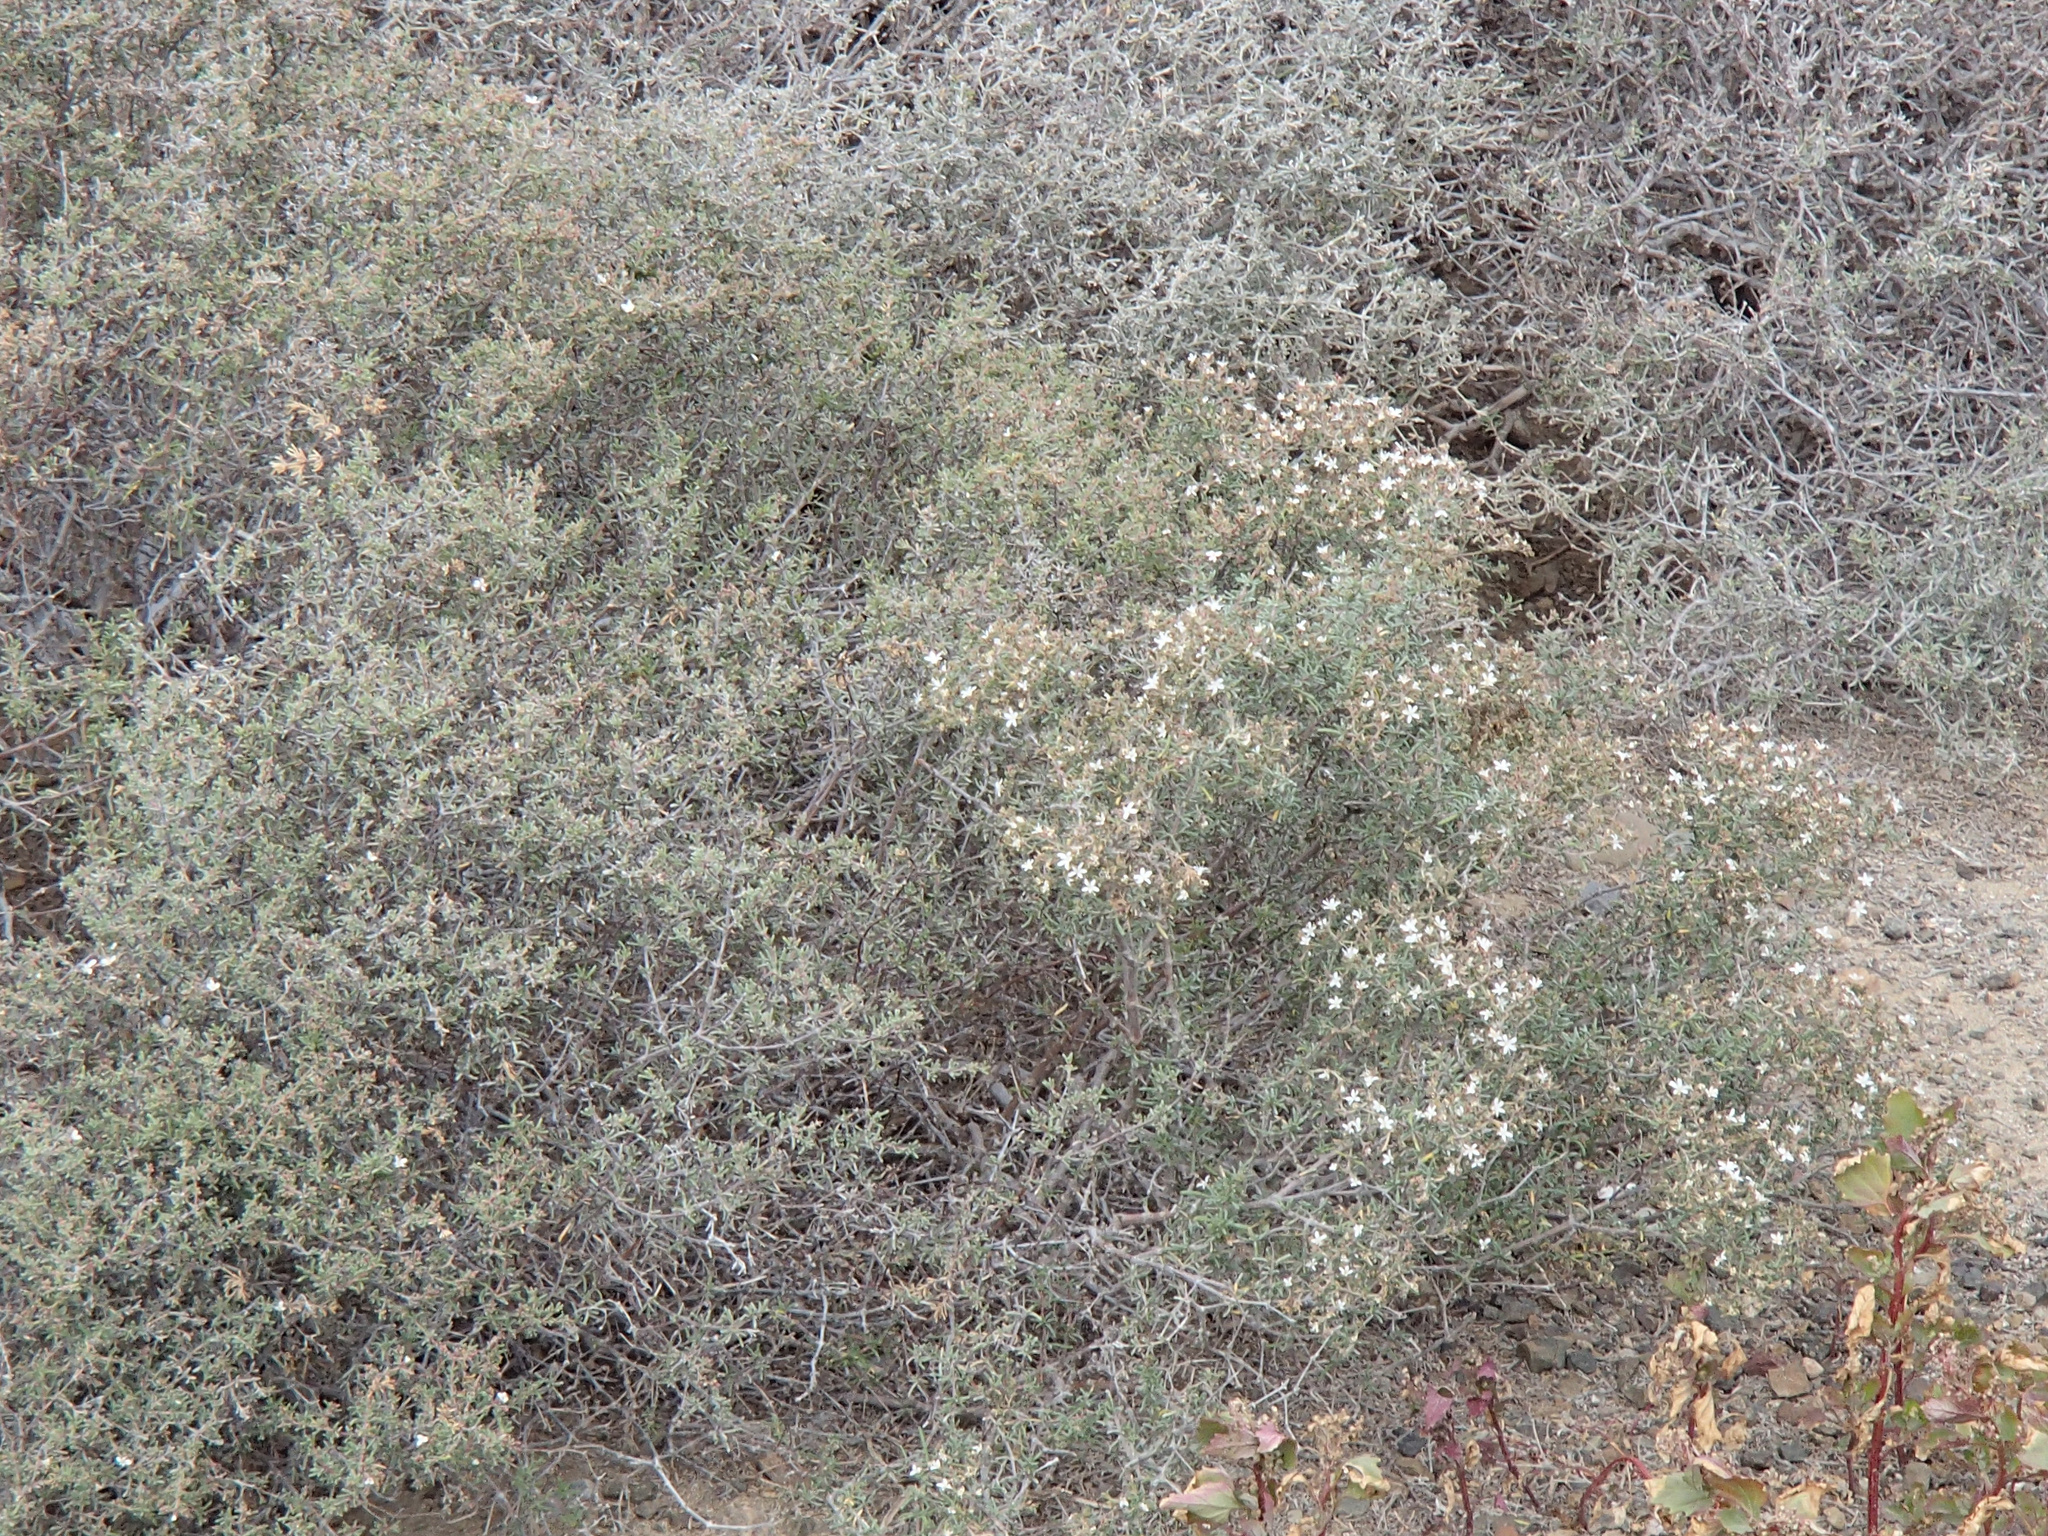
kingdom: Plantae
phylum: Tracheophyta
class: Magnoliopsida
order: Caryophyllales
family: Frankeniaceae
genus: Frankenia
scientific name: Frankenia palmeri
